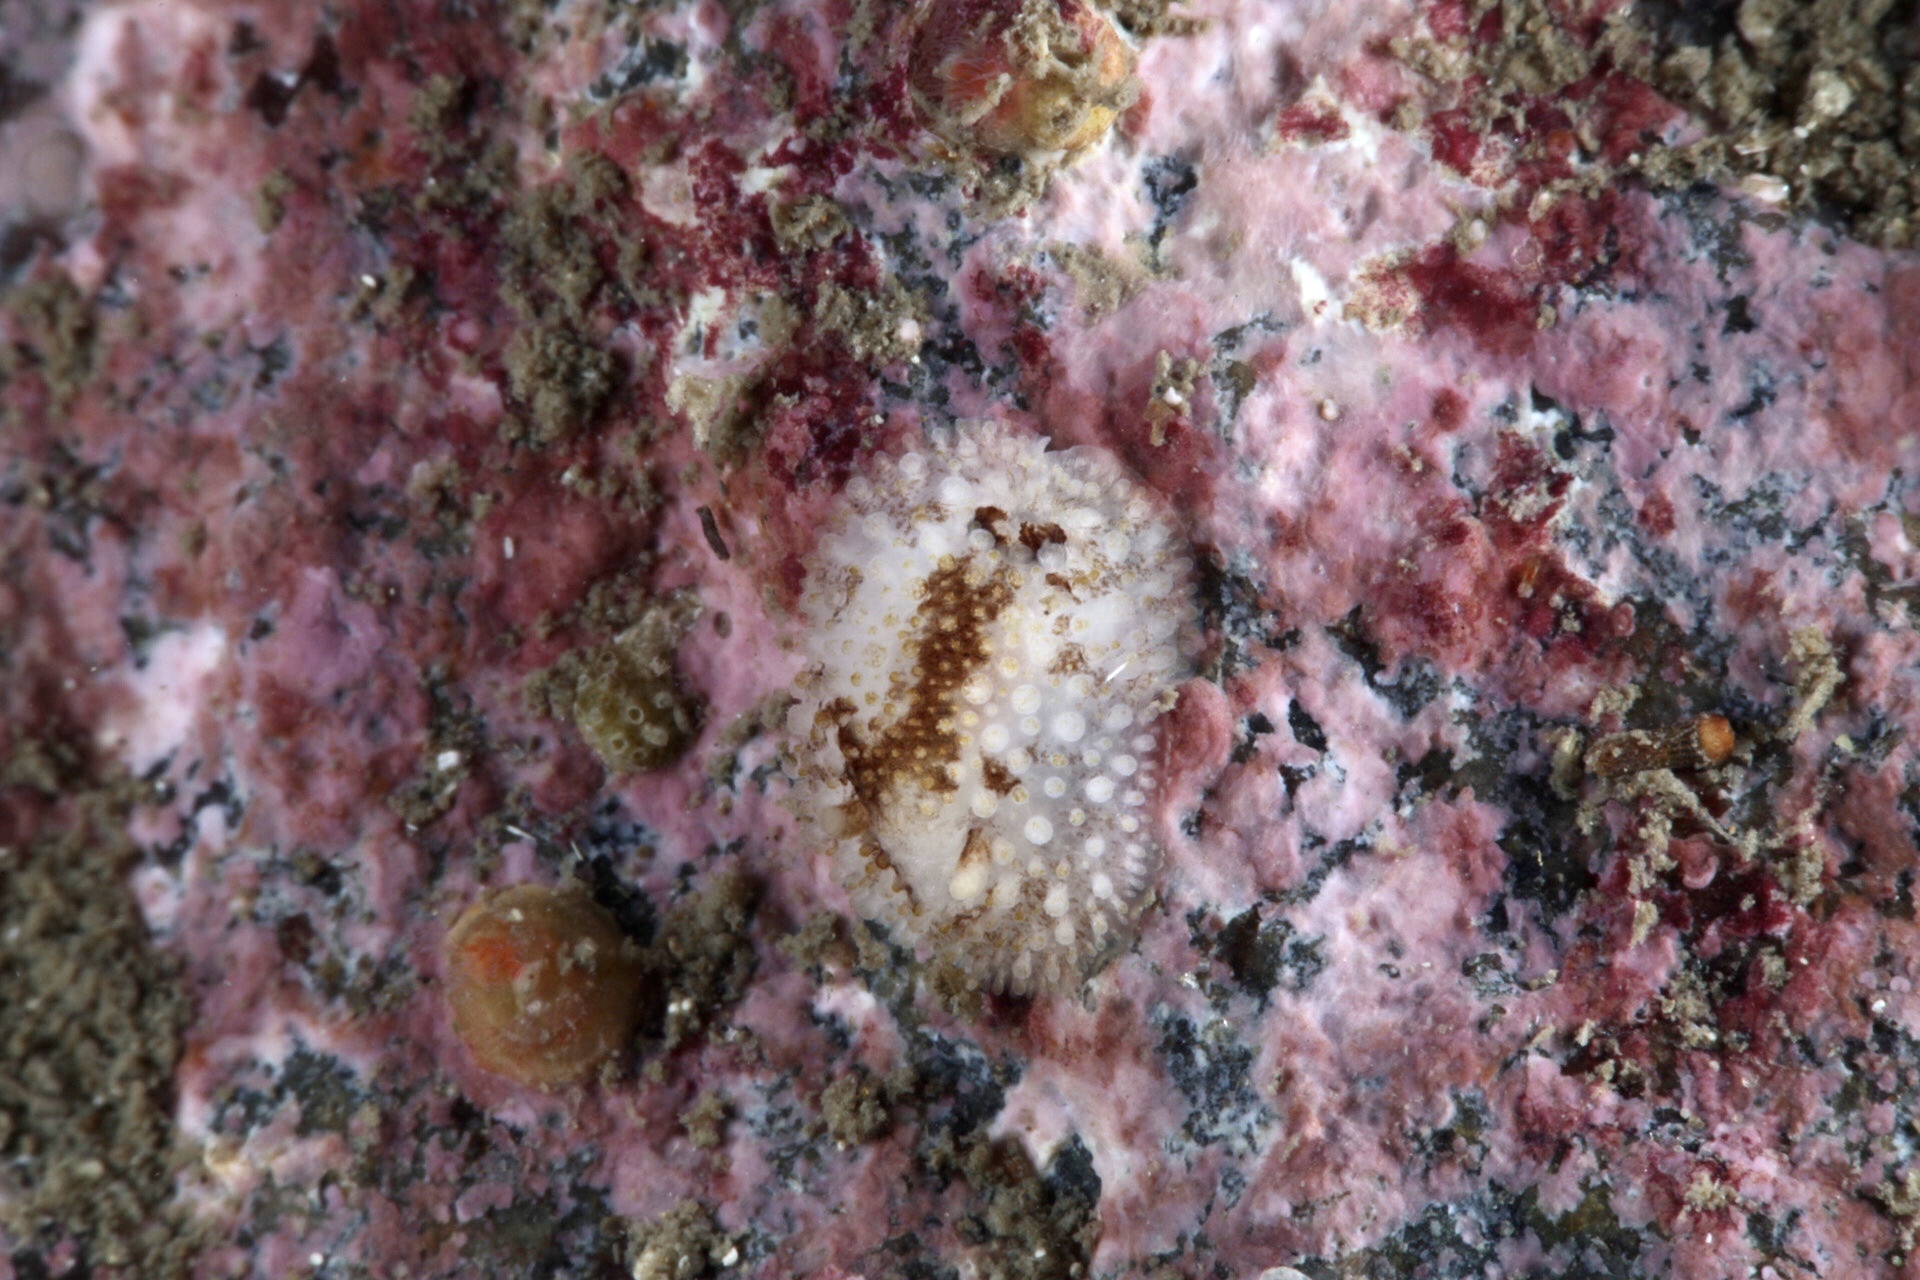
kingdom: Animalia
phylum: Mollusca
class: Gastropoda
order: Nudibranchia
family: Onchidorididae
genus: Onchidoris
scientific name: Onchidoris bilamellata
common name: Barnacle-eating onchidoris
